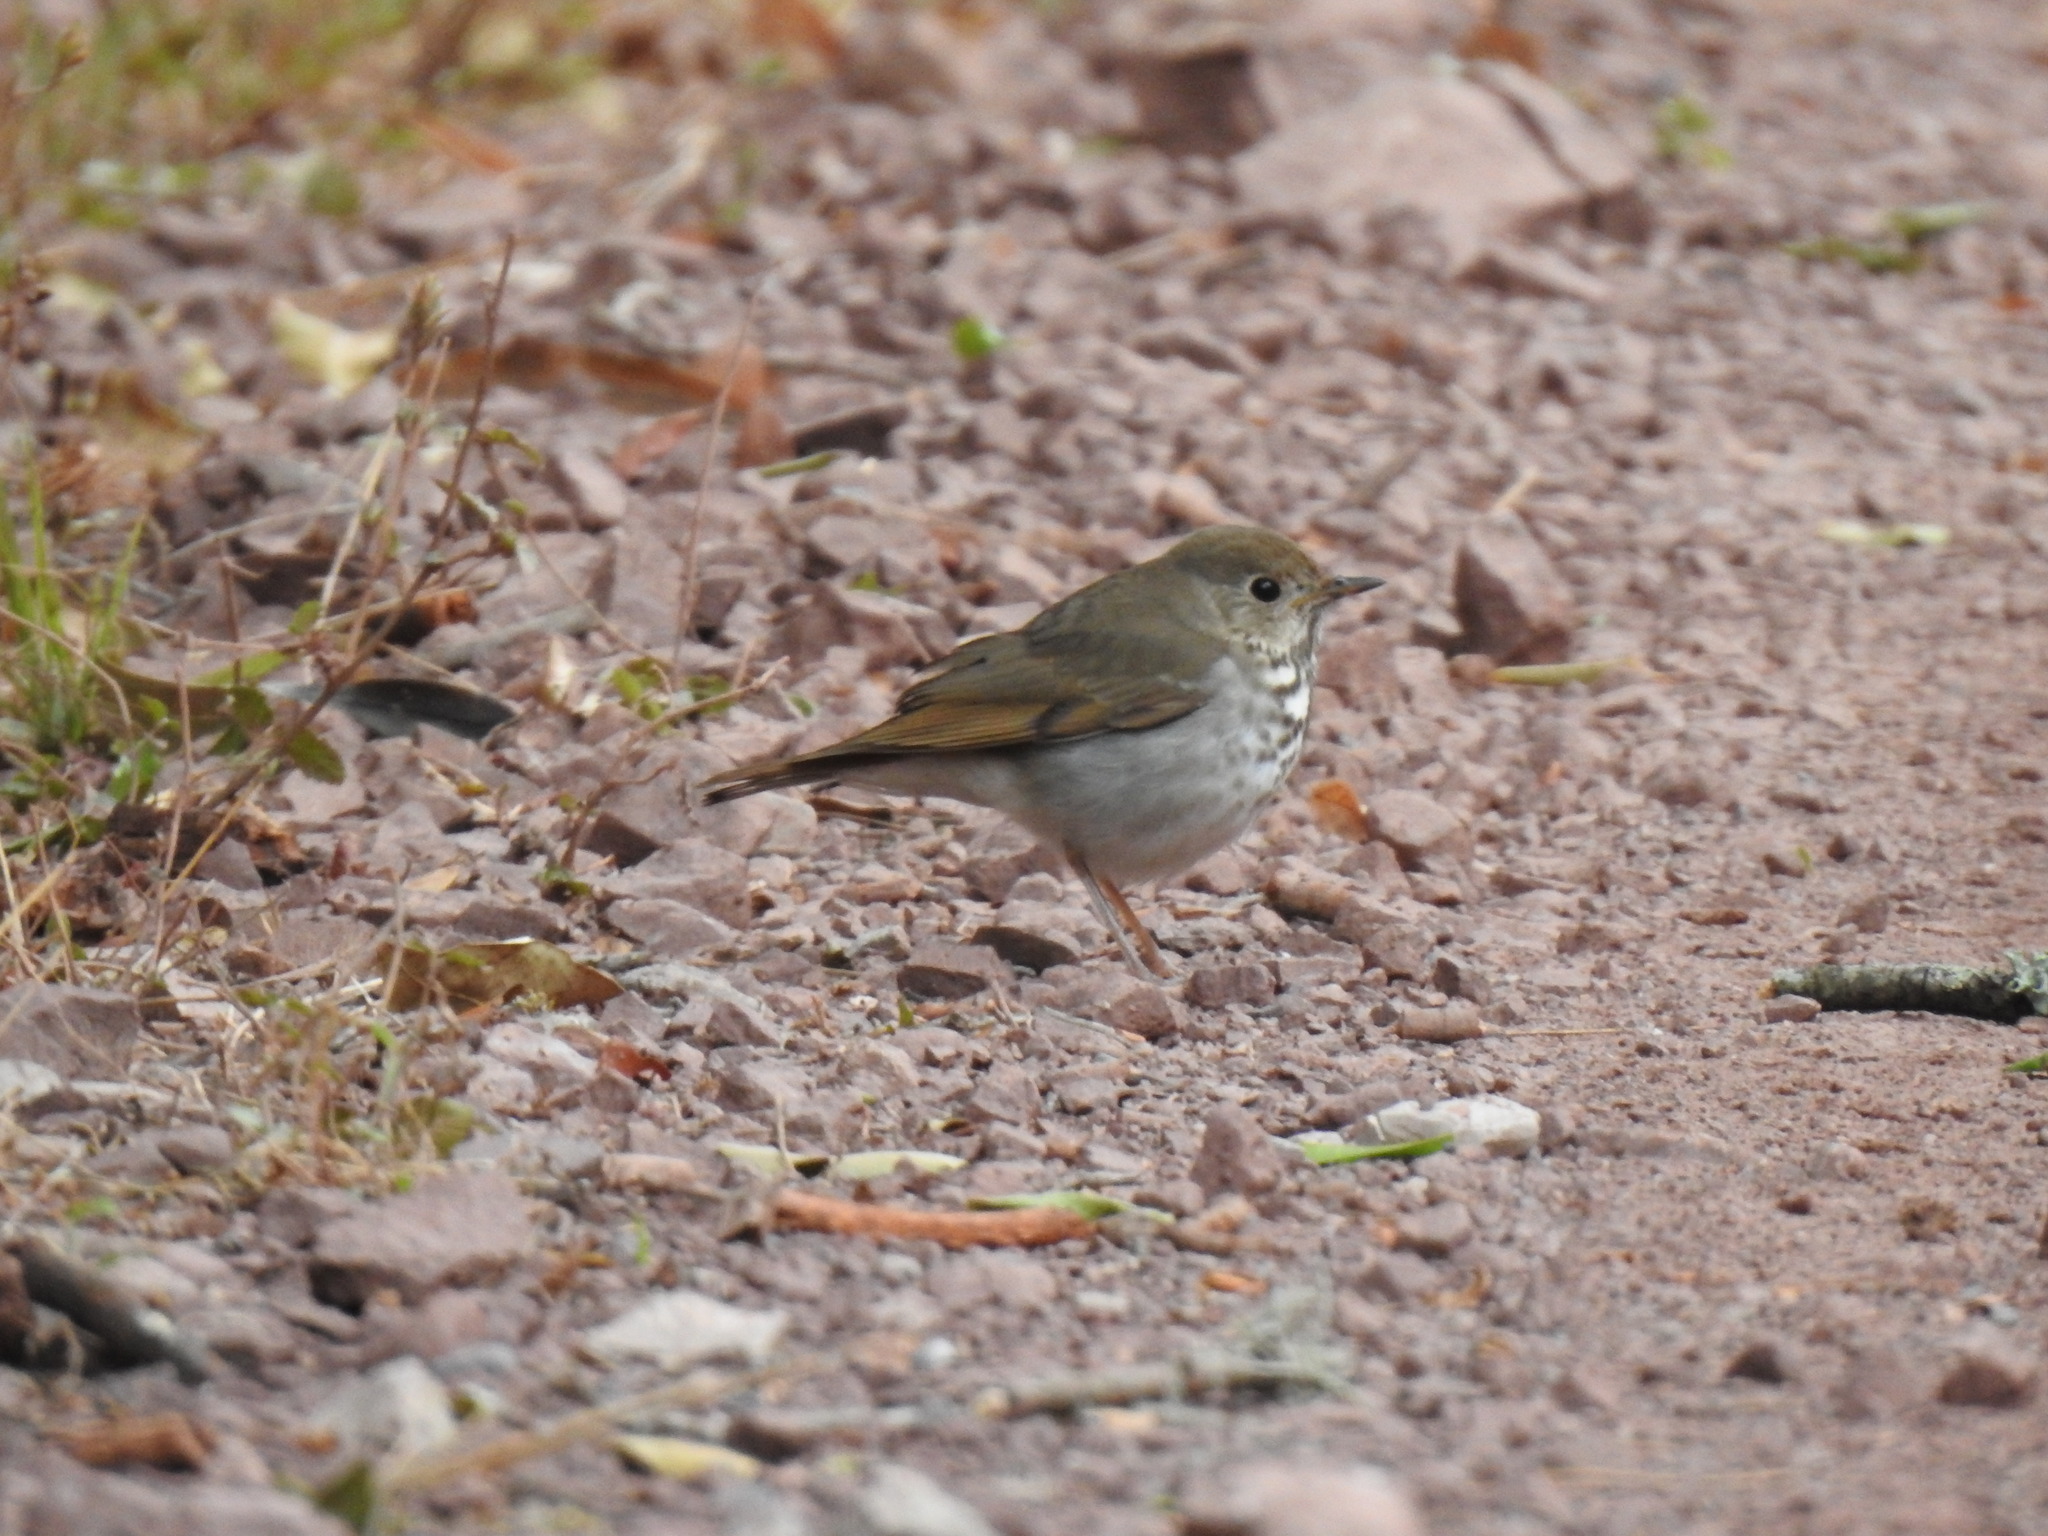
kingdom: Animalia
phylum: Chordata
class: Aves
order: Passeriformes
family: Turdidae
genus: Catharus
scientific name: Catharus guttatus
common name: Hermit thrush
